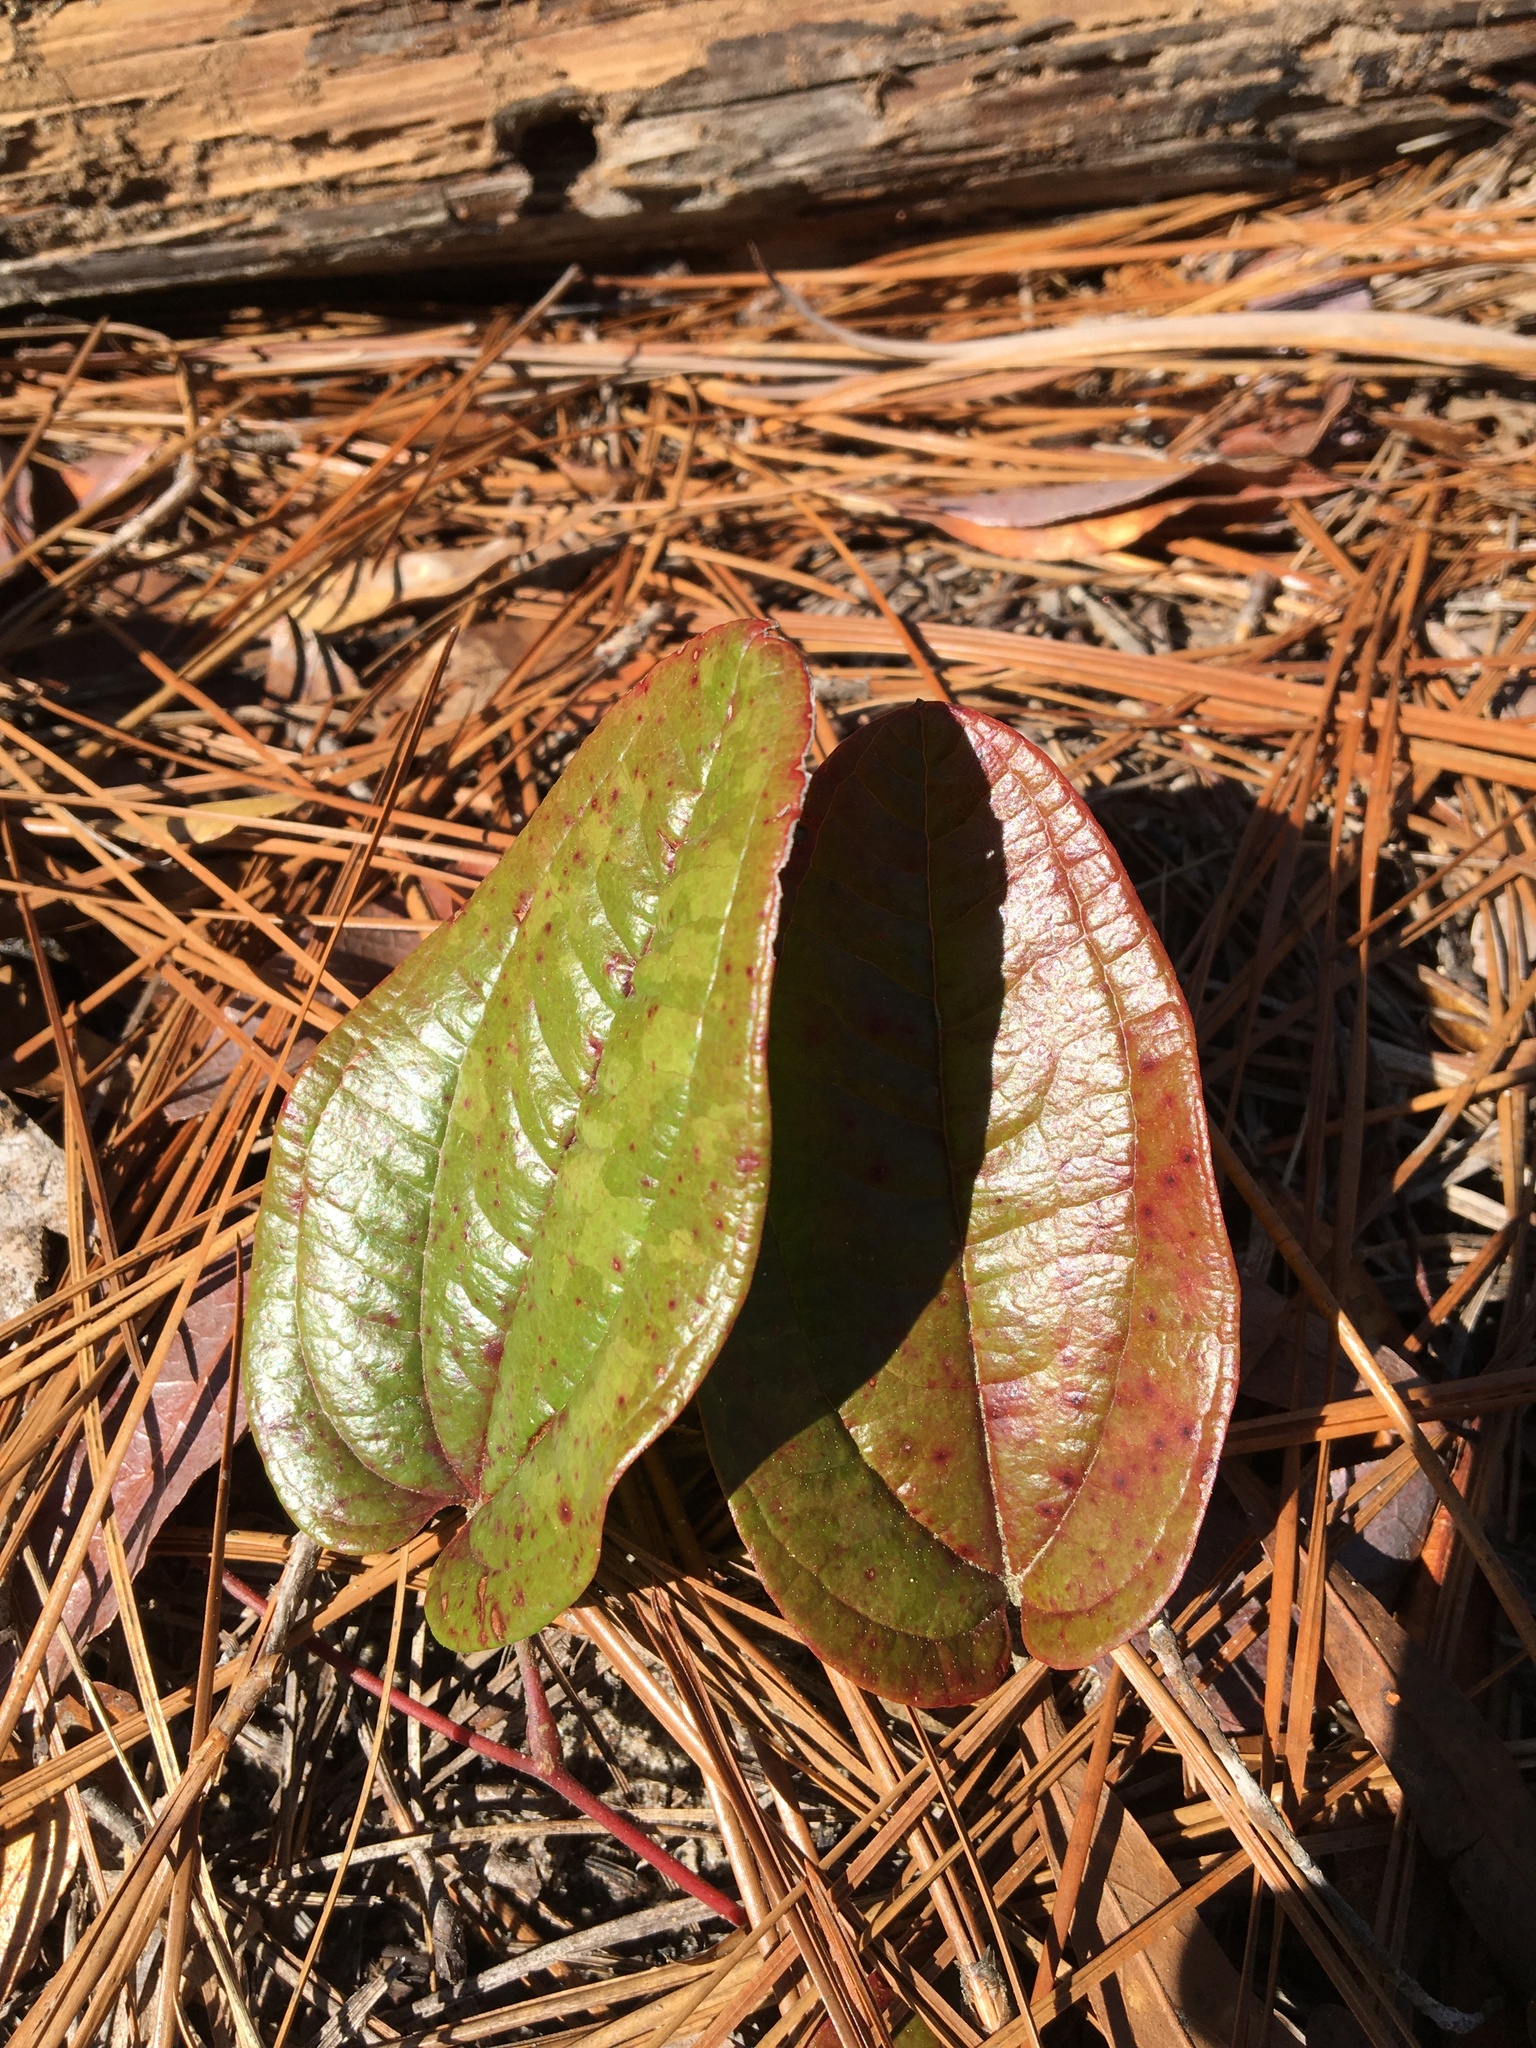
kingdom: Plantae
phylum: Tracheophyta
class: Liliopsida
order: Liliales
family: Smilacaceae
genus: Smilax
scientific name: Smilax pumila
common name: Sarsaparilla-vine
